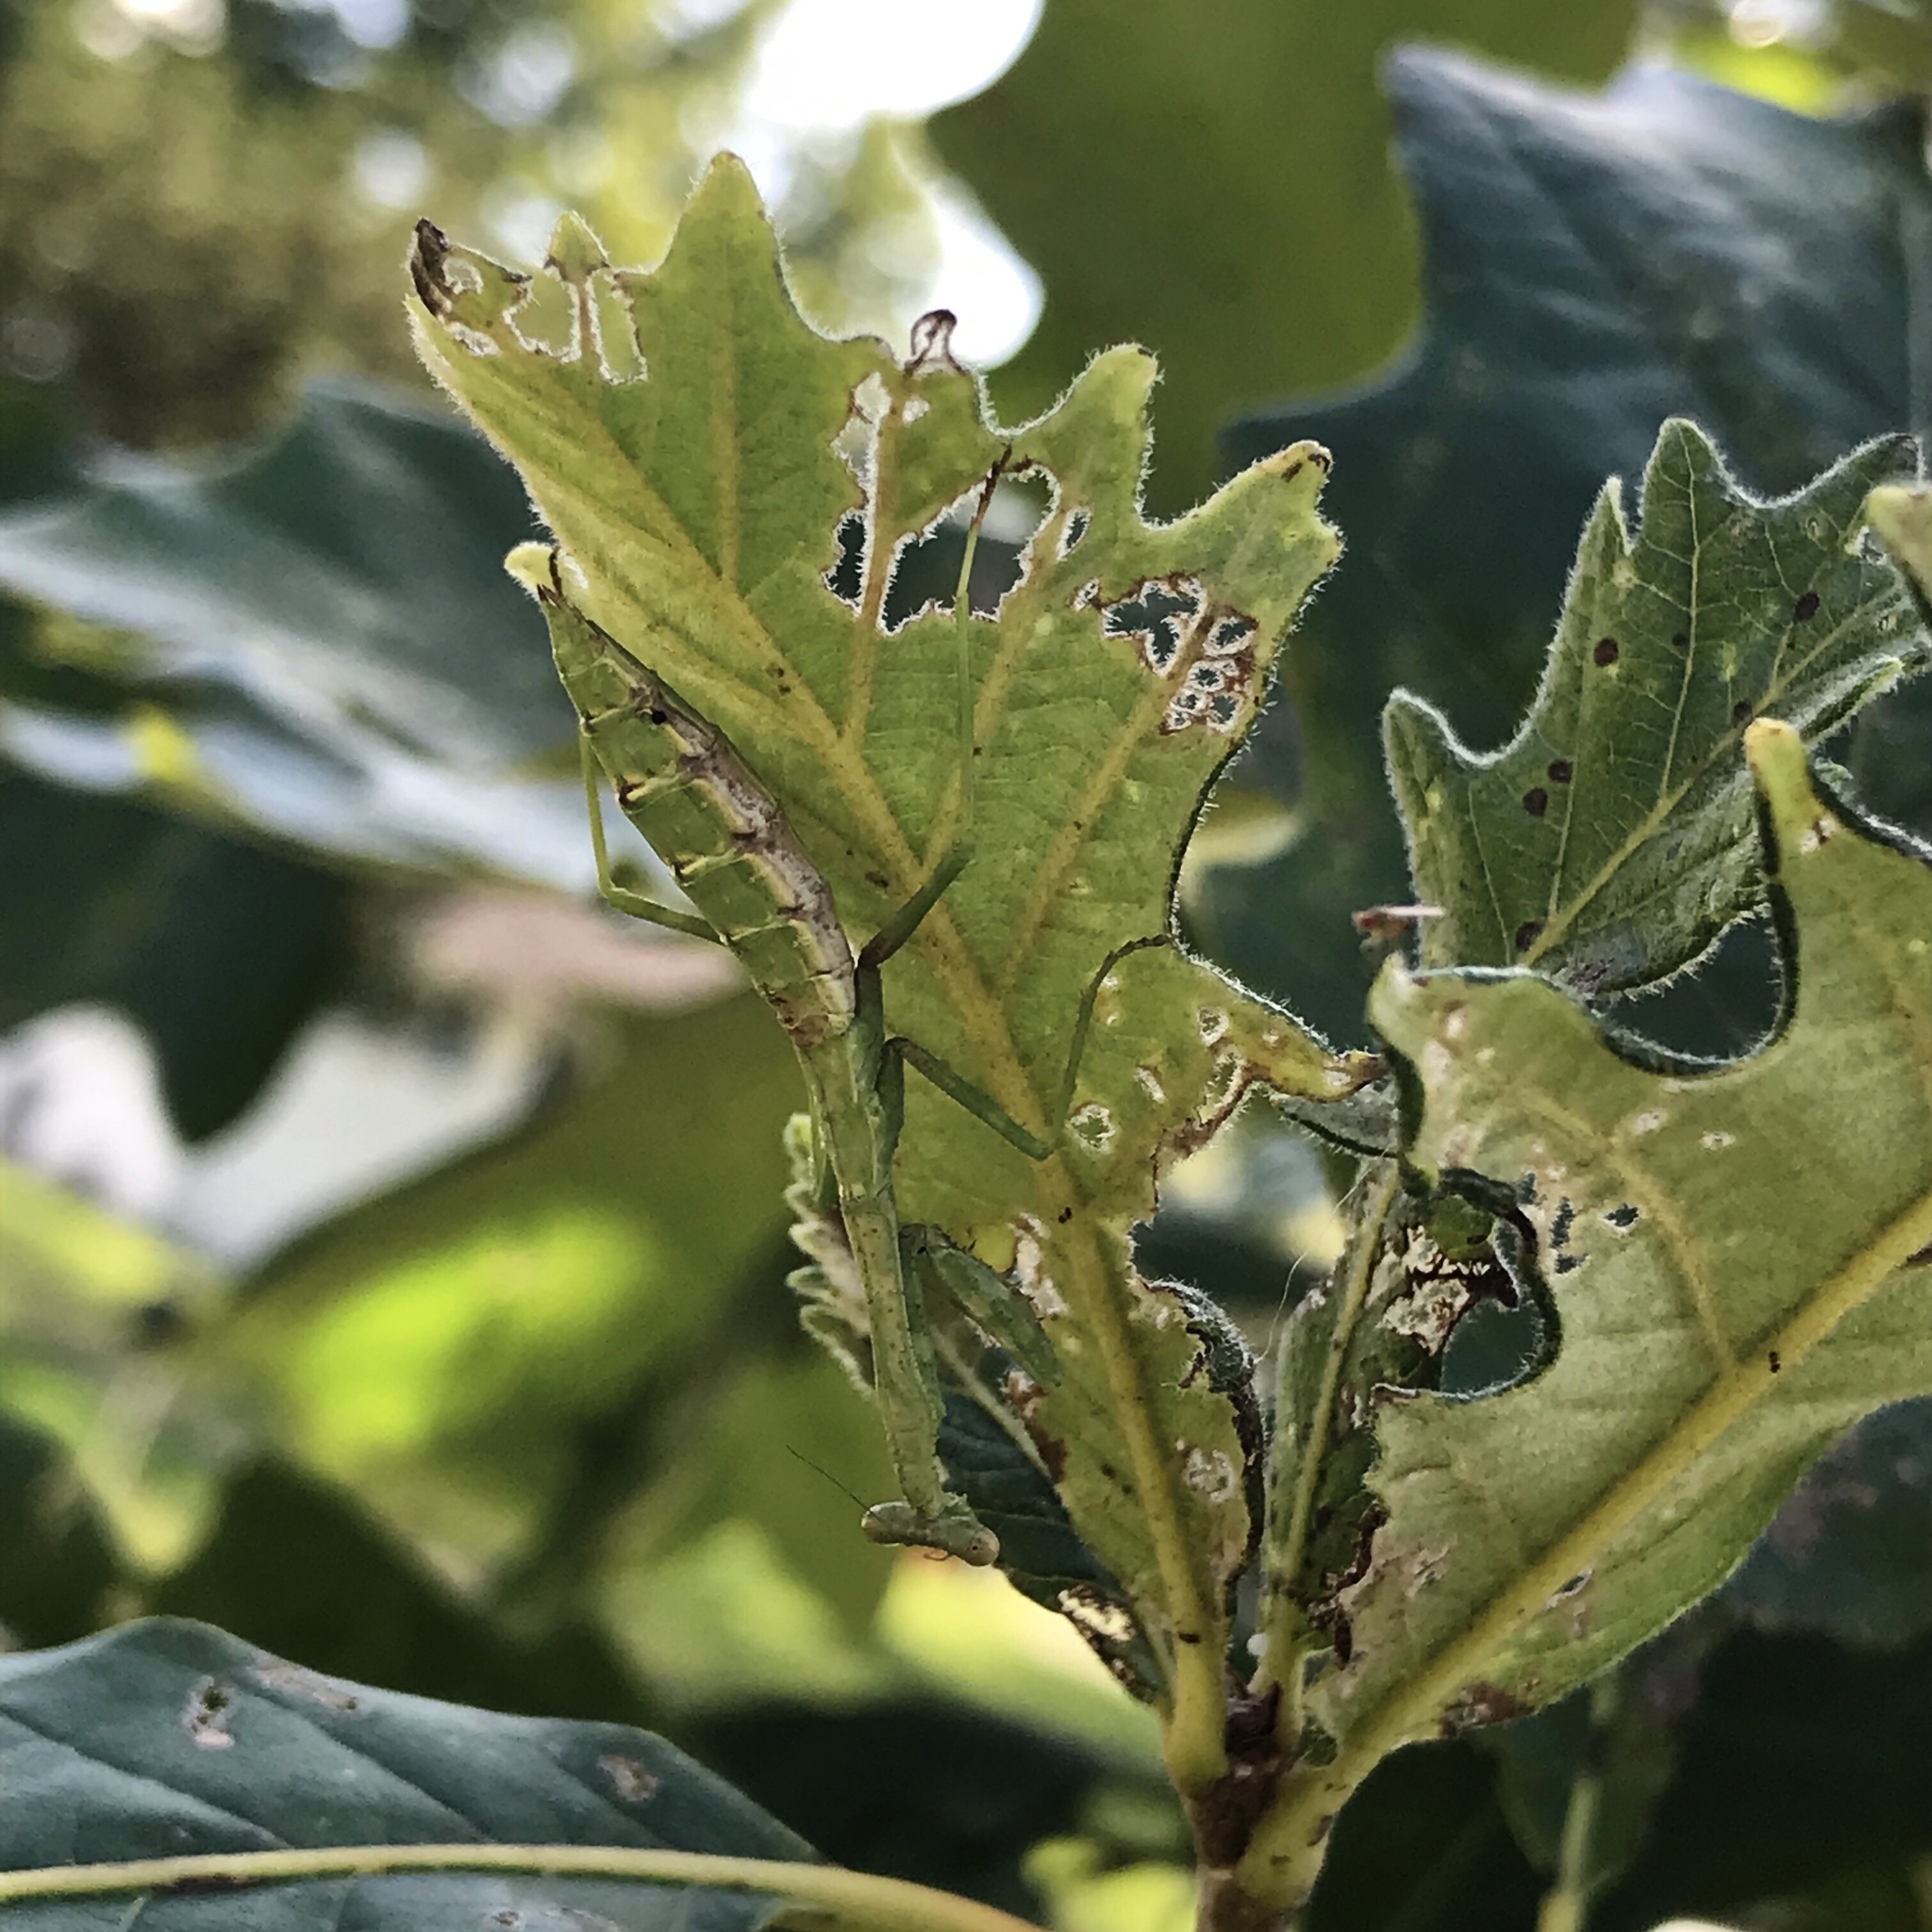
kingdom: Animalia
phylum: Arthropoda
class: Insecta
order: Mantodea
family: Mantidae
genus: Stagmomantis
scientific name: Stagmomantis carolina
